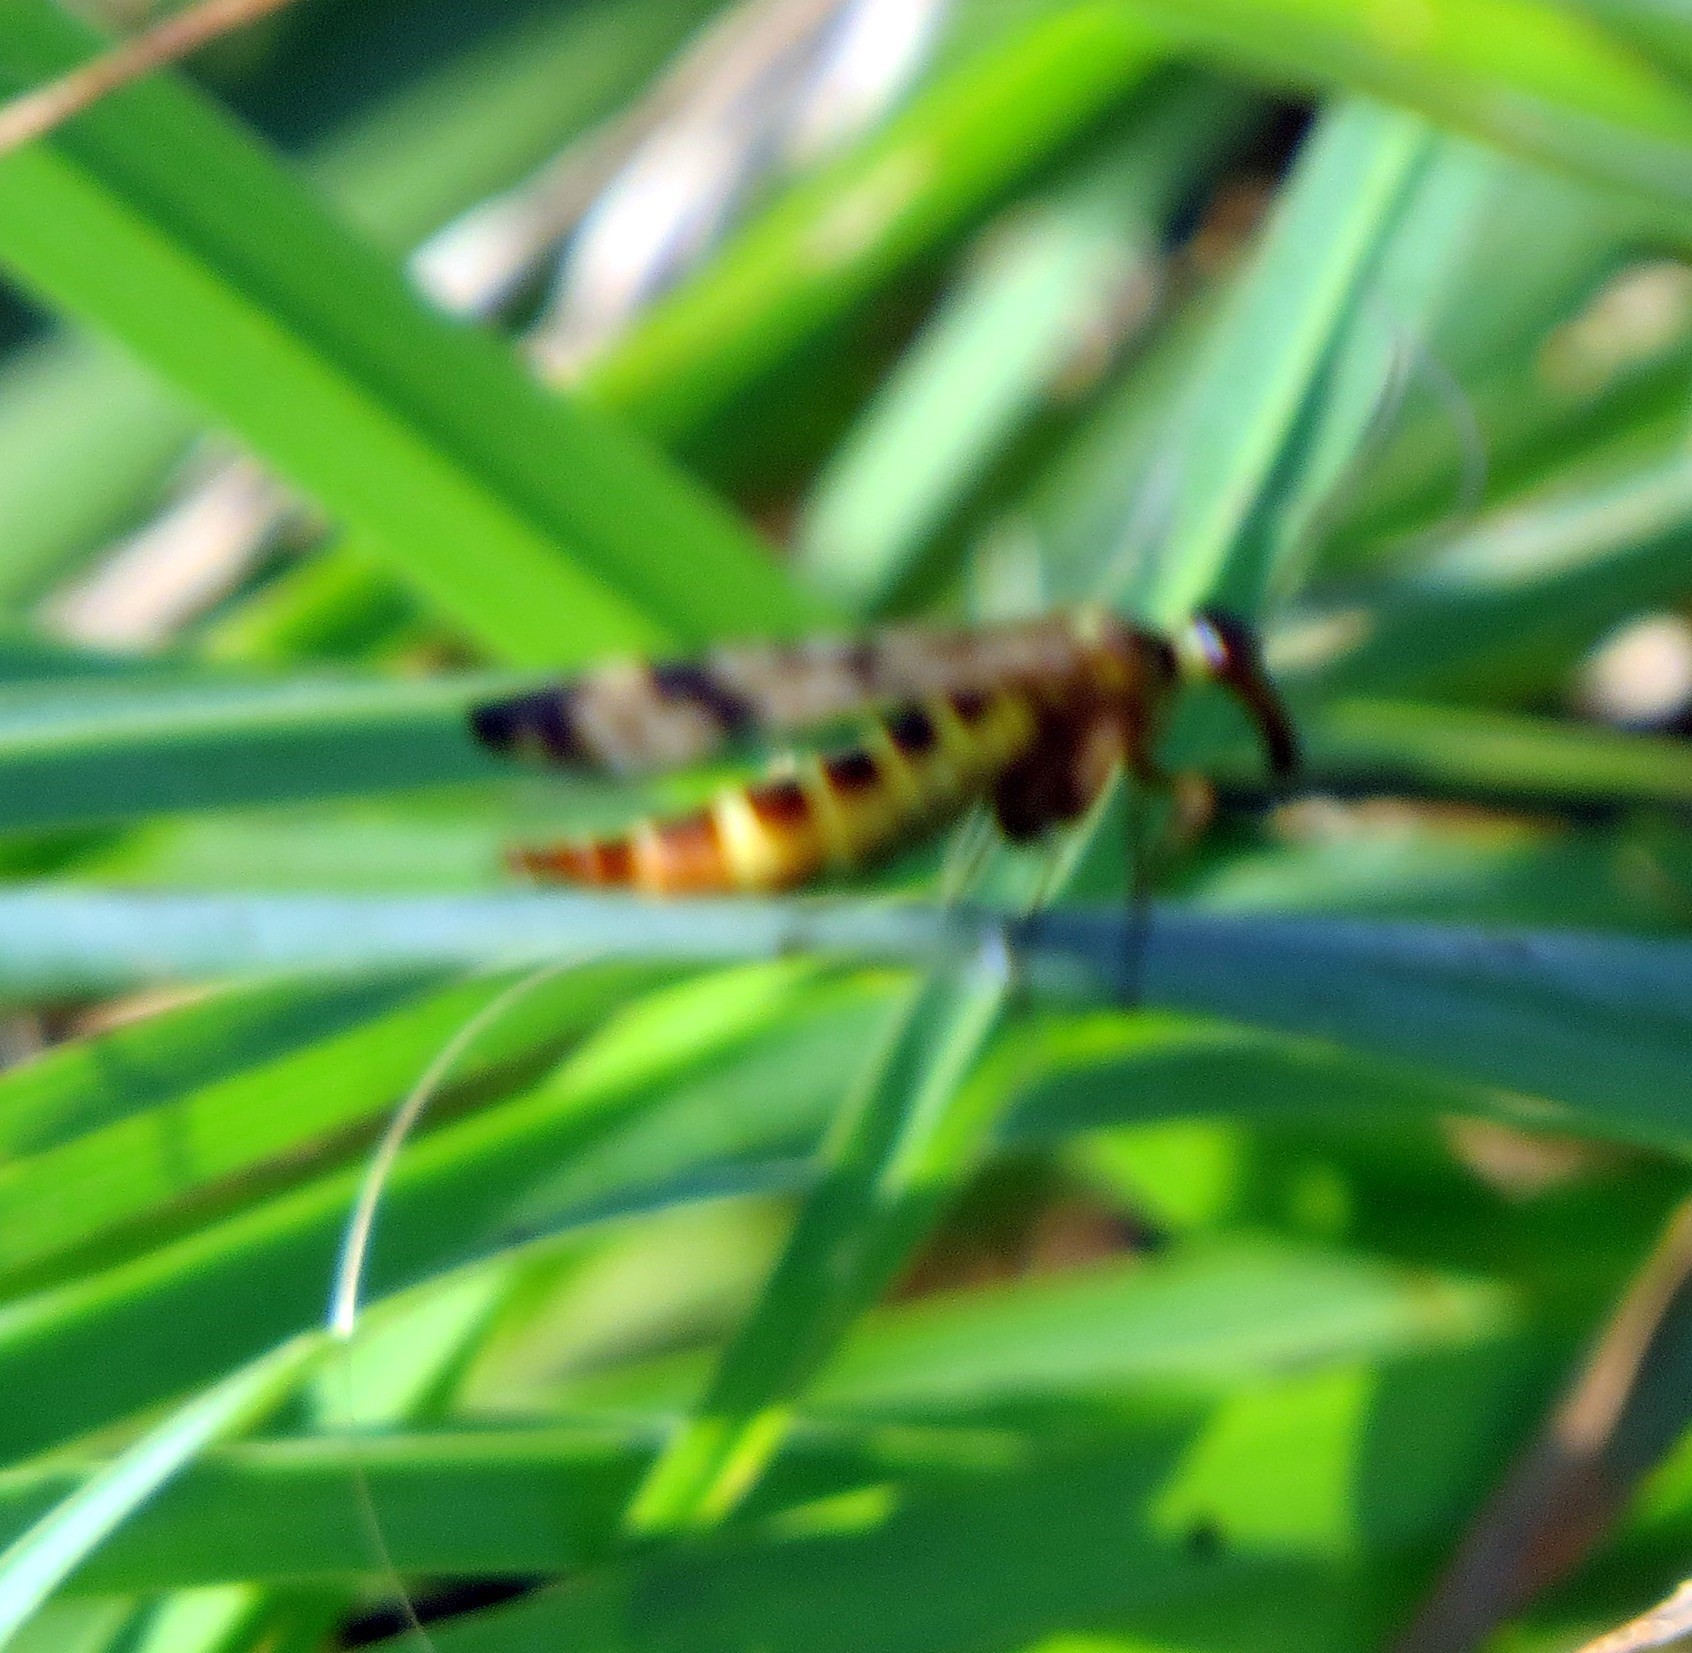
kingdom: Animalia
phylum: Arthropoda
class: Insecta
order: Mecoptera
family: Panorpidae
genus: Panorpa
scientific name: Panorpa
